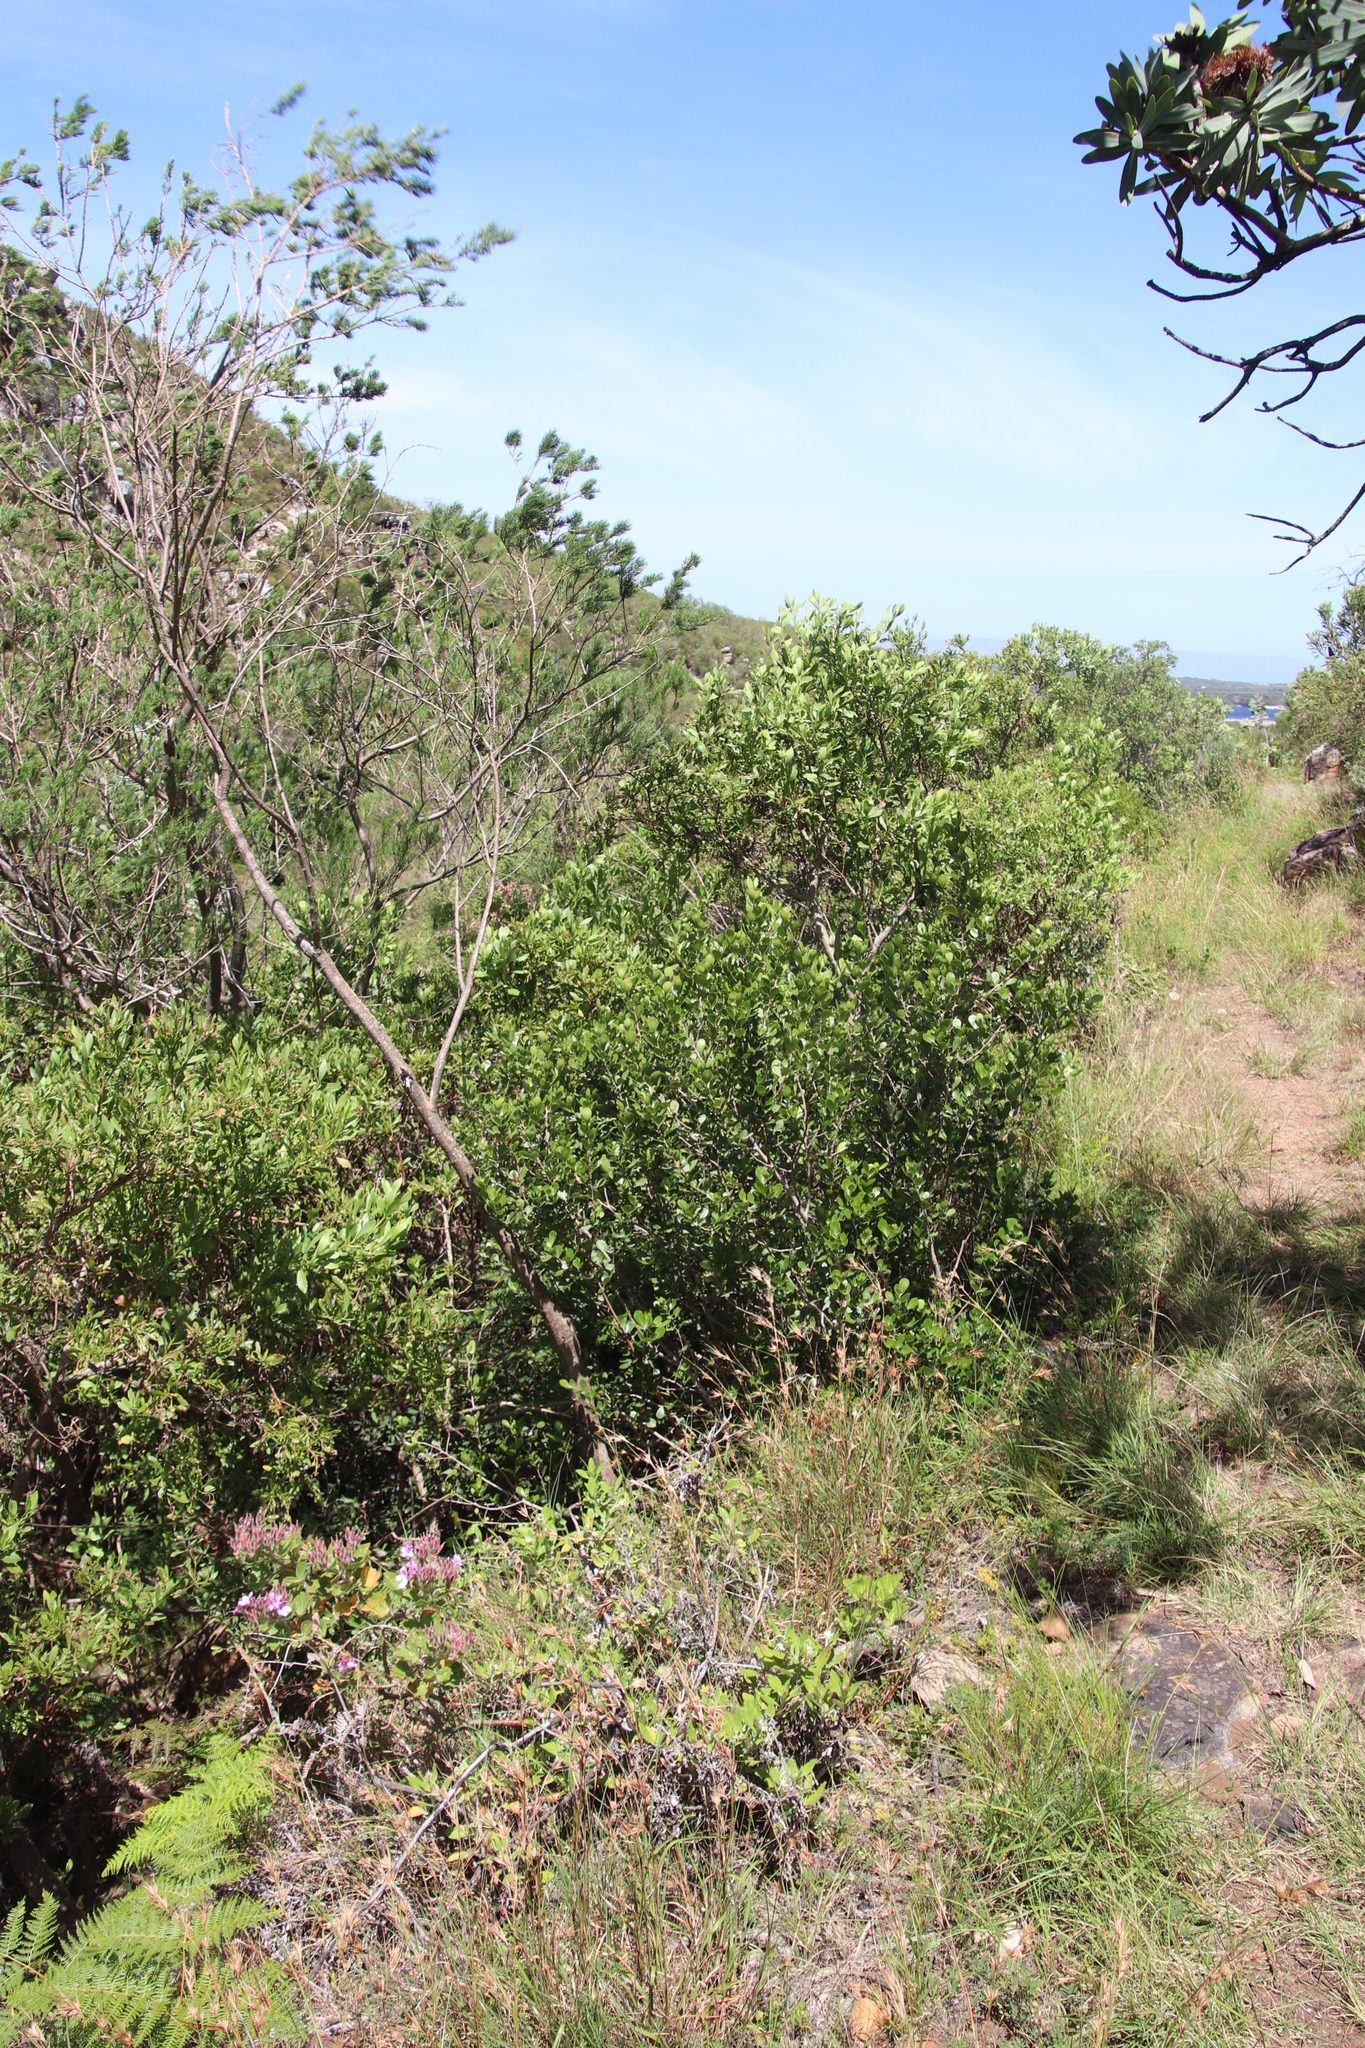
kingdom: Plantae
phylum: Tracheophyta
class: Magnoliopsida
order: Sapindales
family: Anacardiaceae
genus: Searsia
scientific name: Searsia lucida
